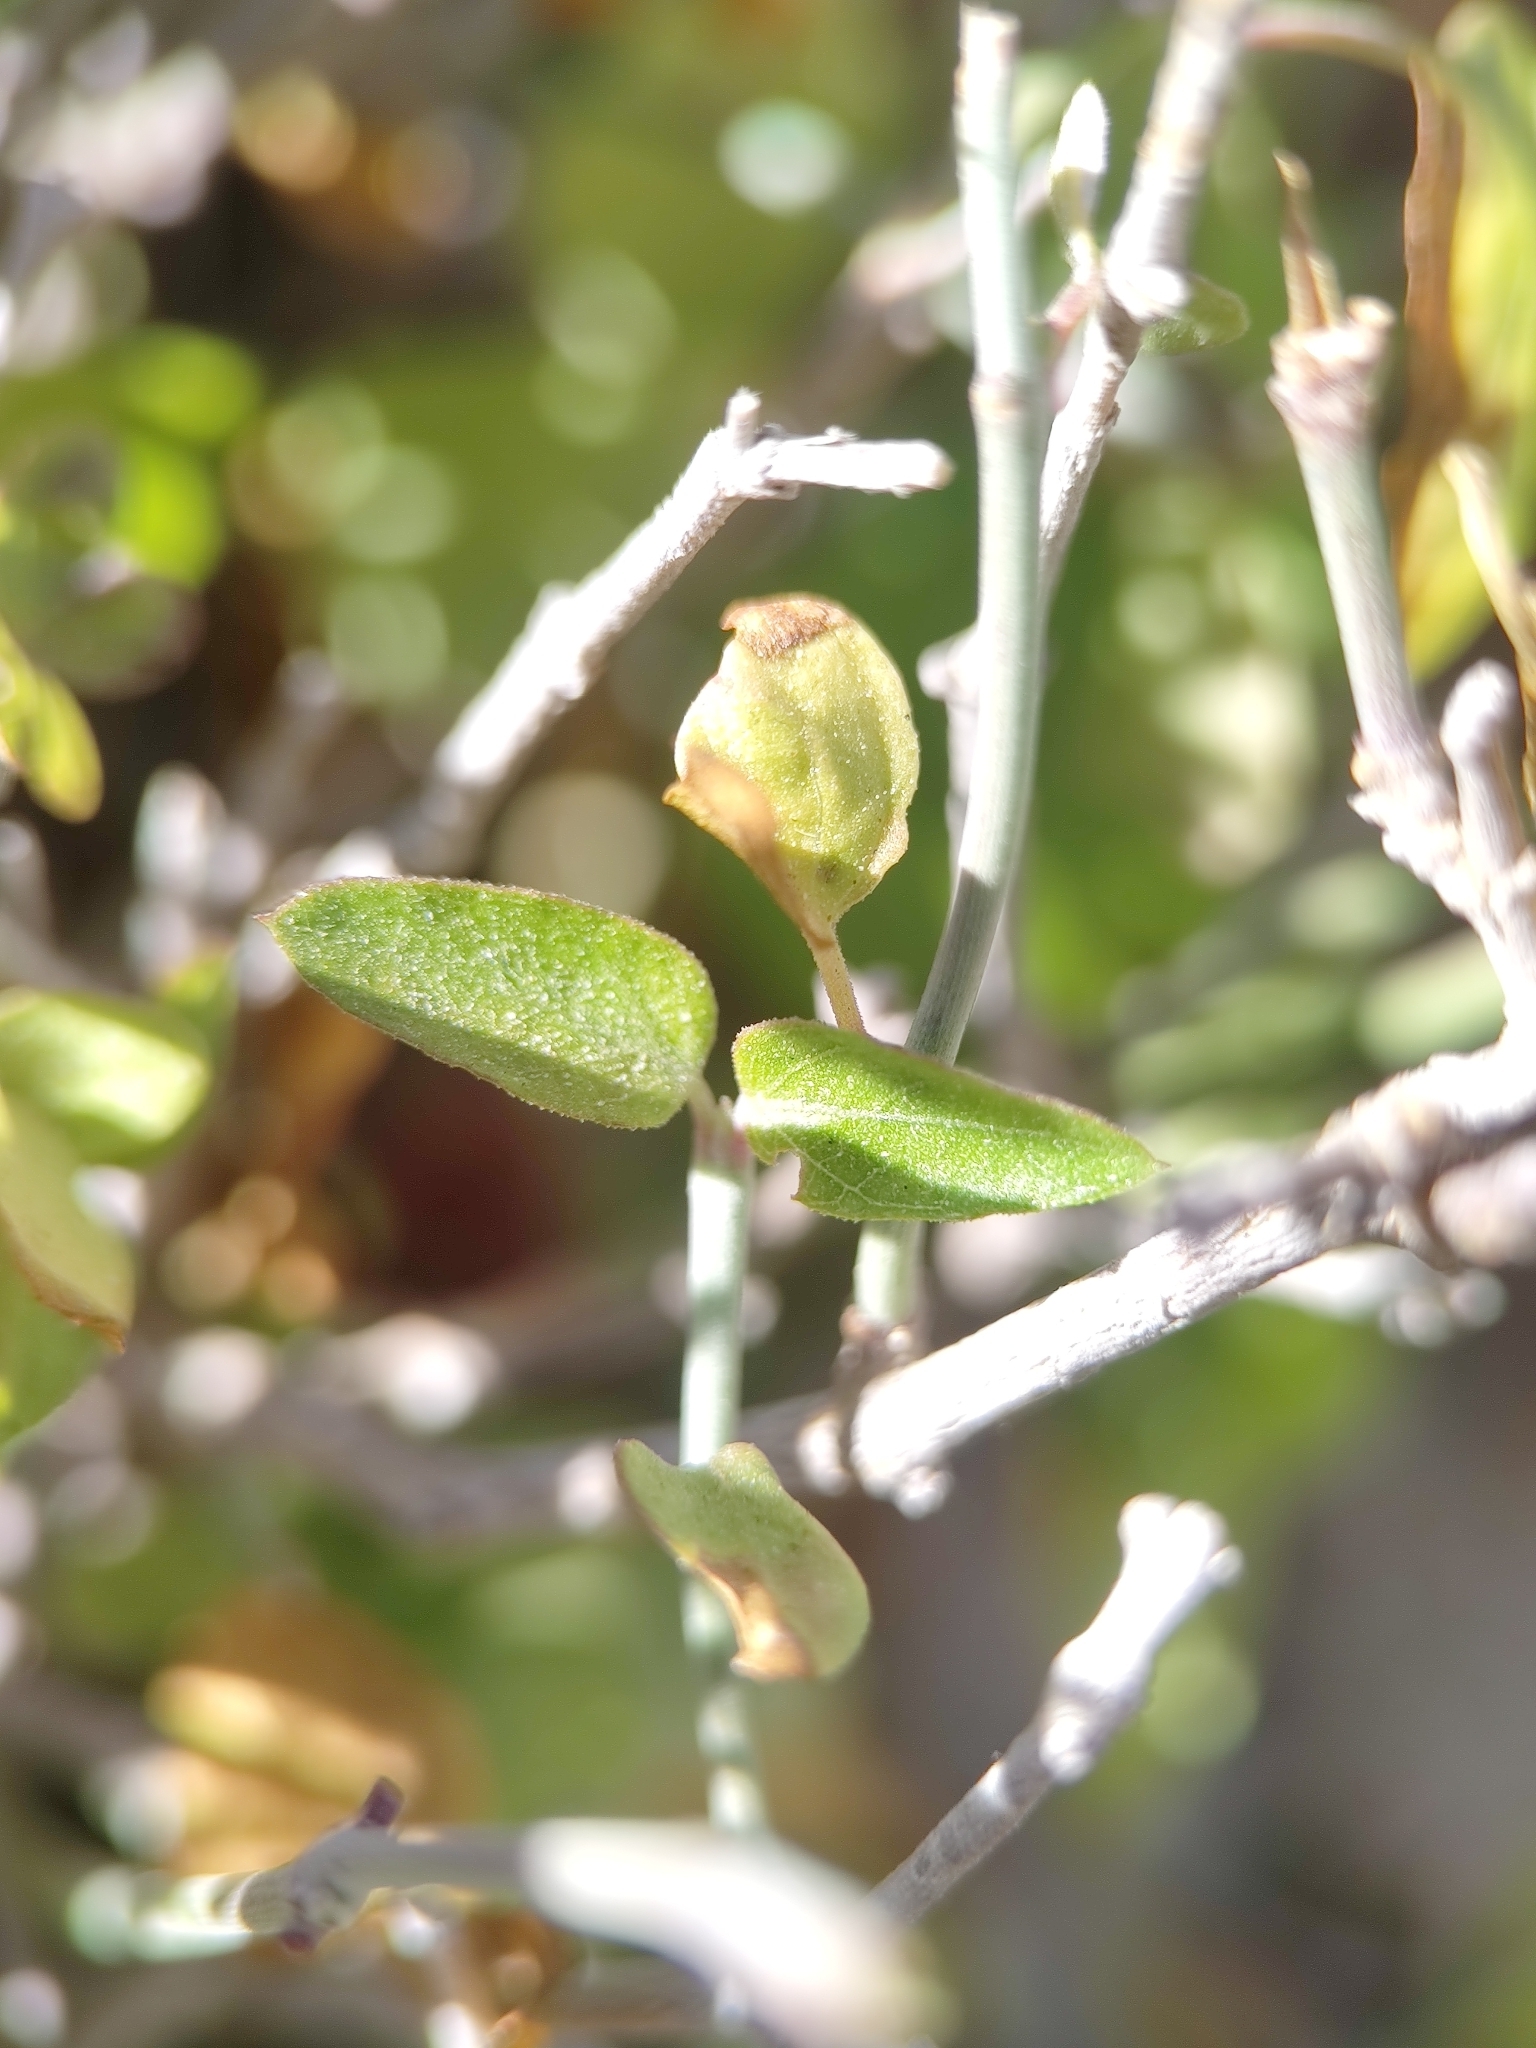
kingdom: Plantae
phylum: Tracheophyta
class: Magnoliopsida
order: Lamiales
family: Acanthaceae
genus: Carlowrightia
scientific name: Carlowrightia arizonica
